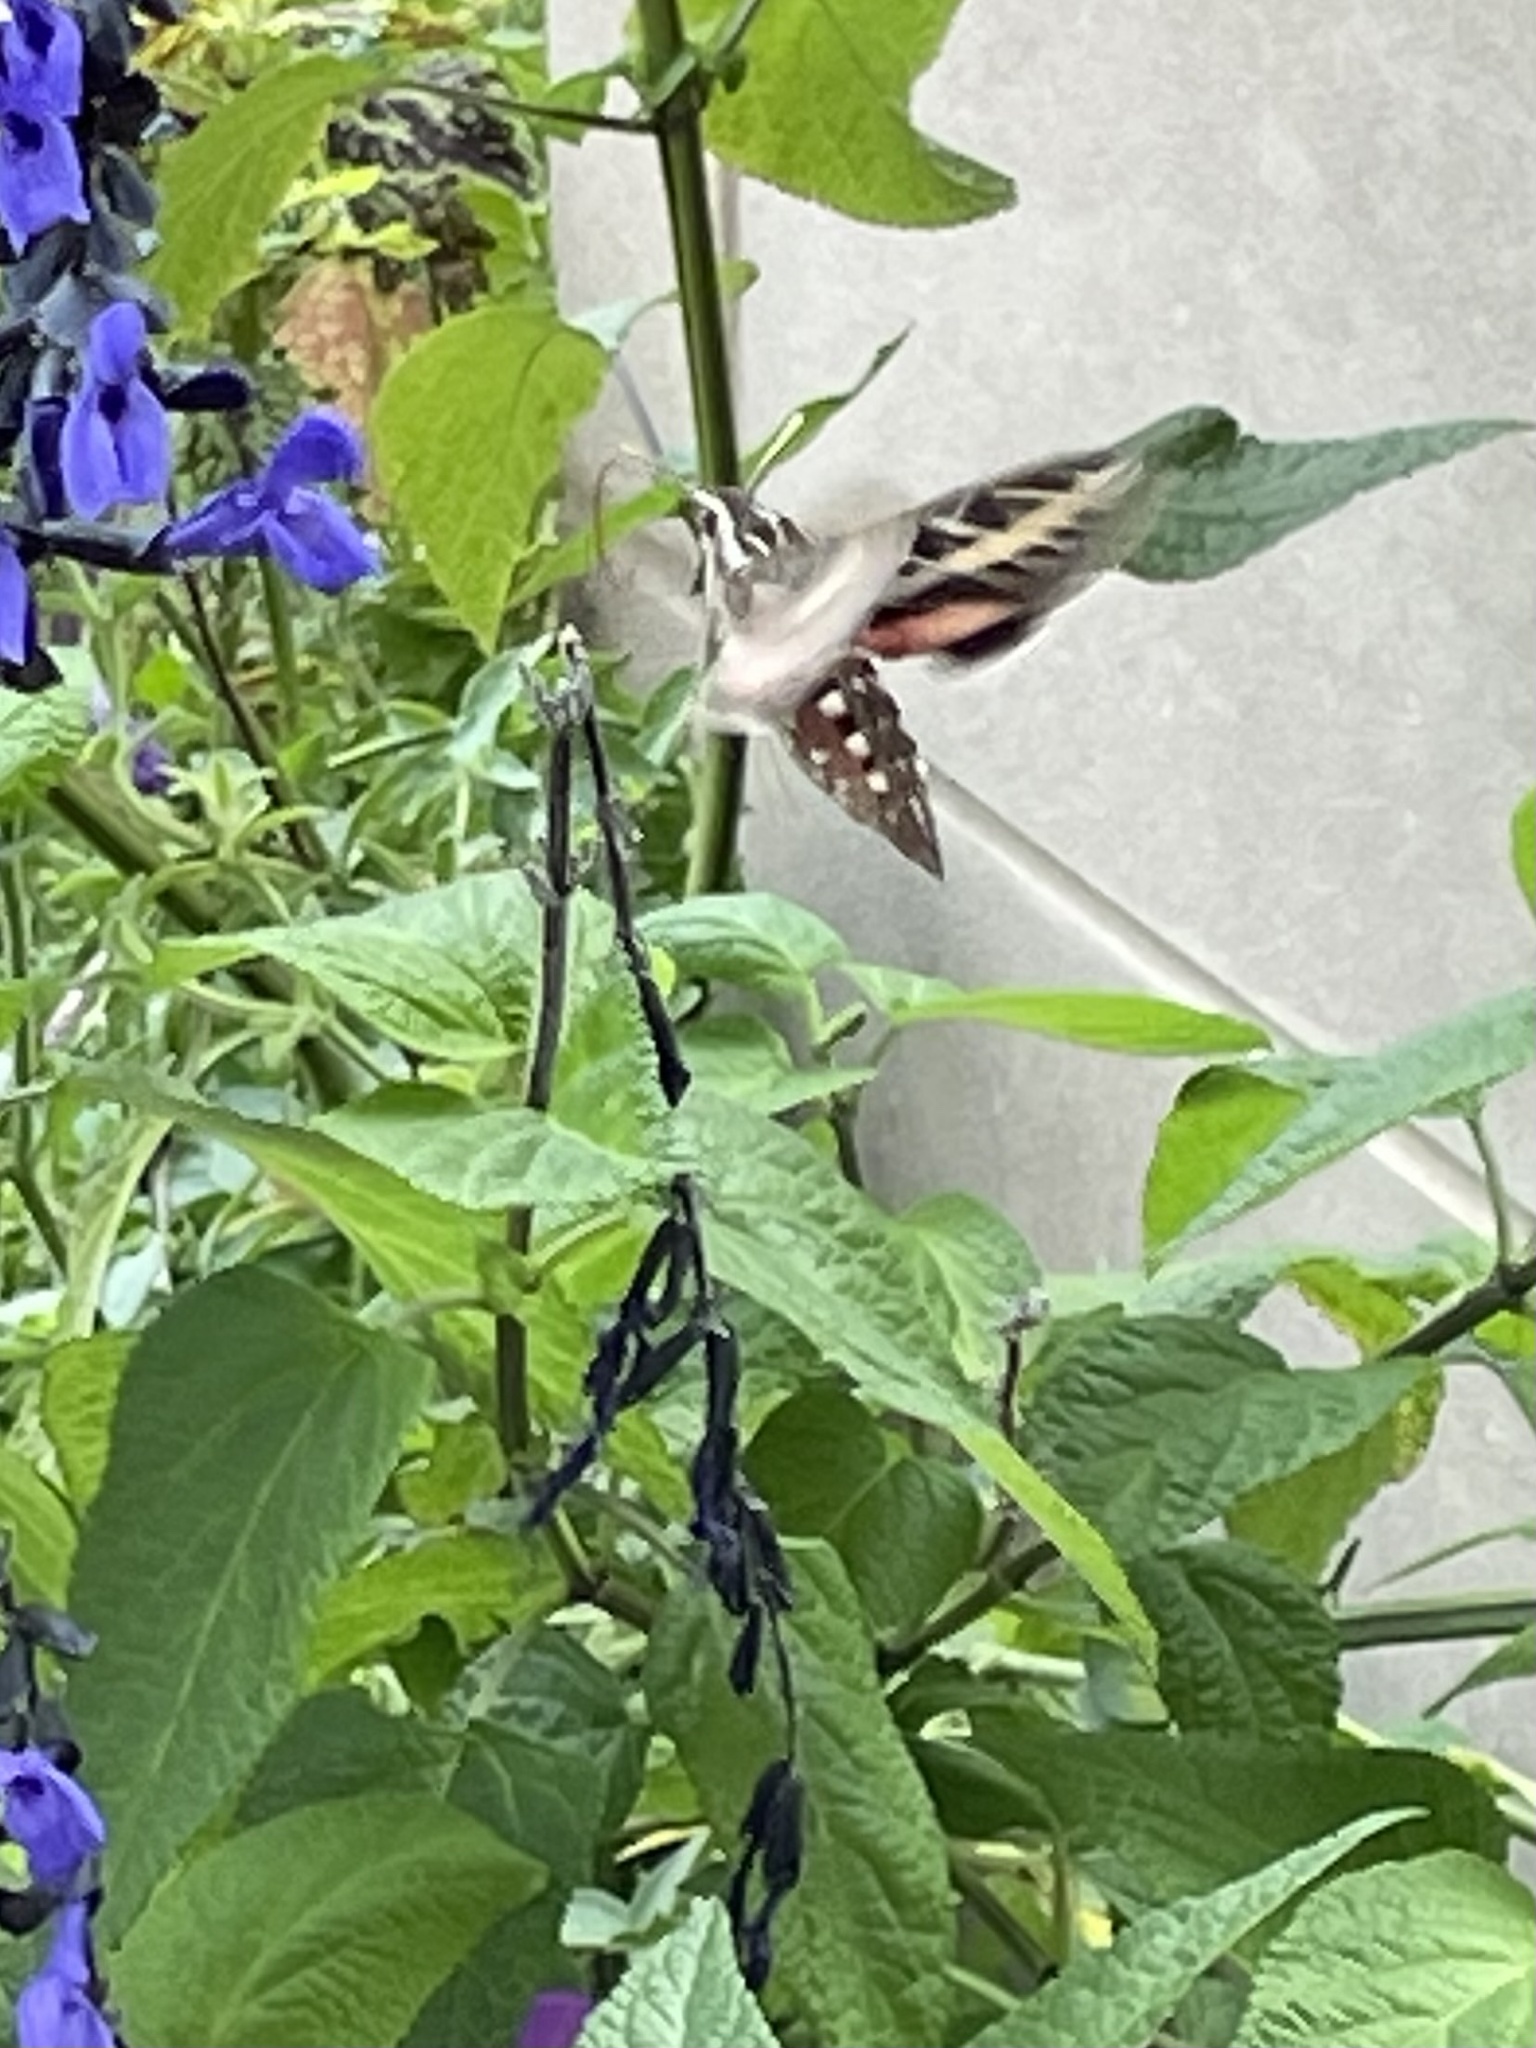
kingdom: Animalia
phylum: Arthropoda
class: Insecta
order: Lepidoptera
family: Sphingidae
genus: Hyles
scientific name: Hyles lineata
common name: White-lined sphinx
